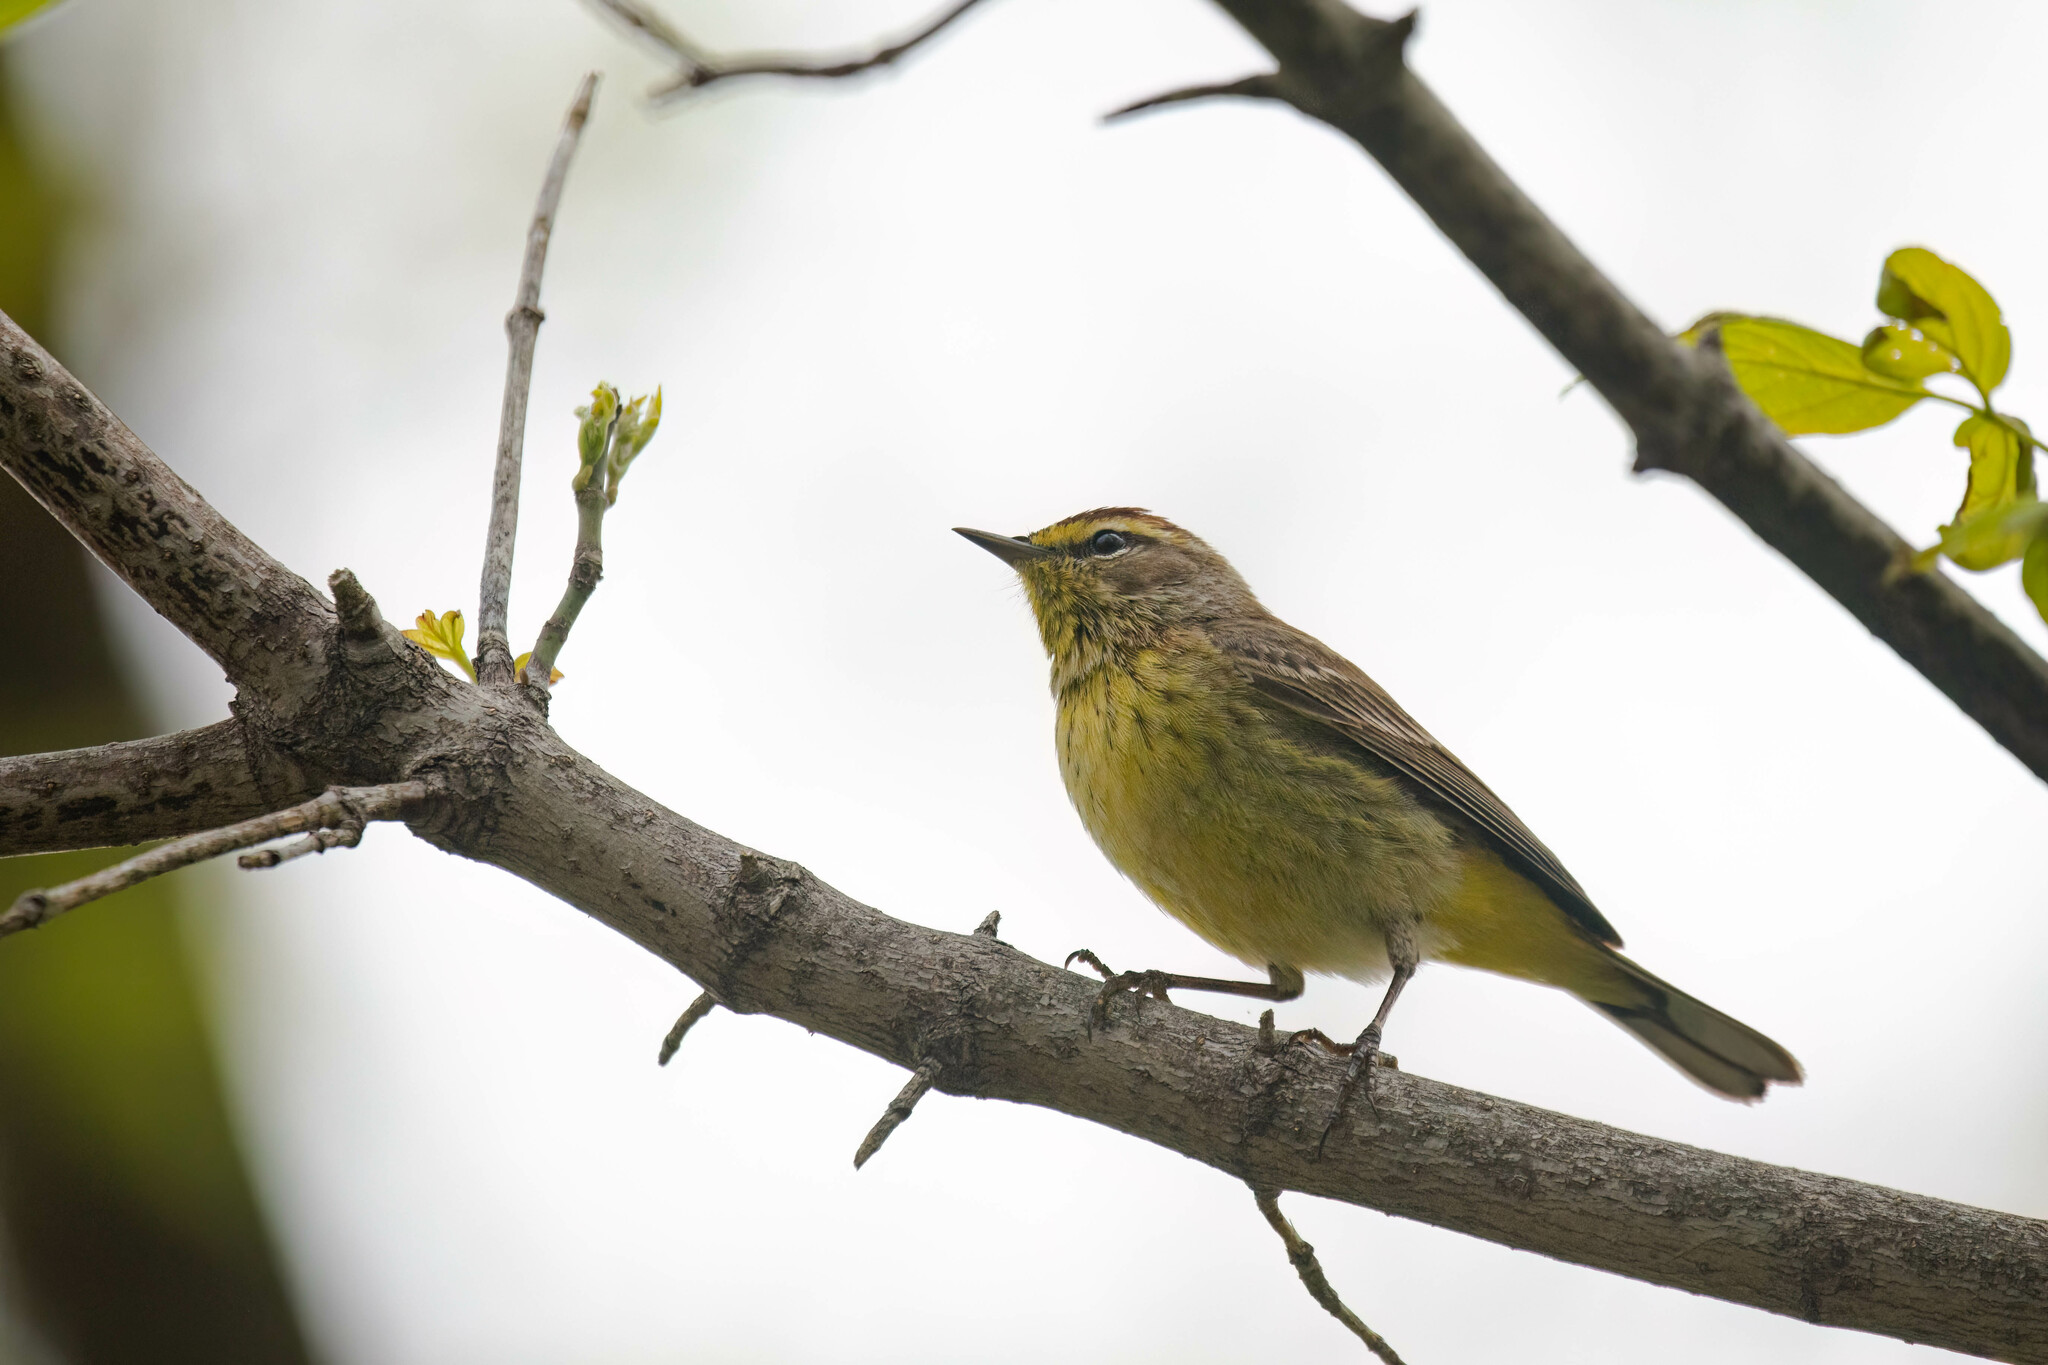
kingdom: Animalia
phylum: Chordata
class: Aves
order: Passeriformes
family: Parulidae
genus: Setophaga
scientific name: Setophaga palmarum
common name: Palm warbler
